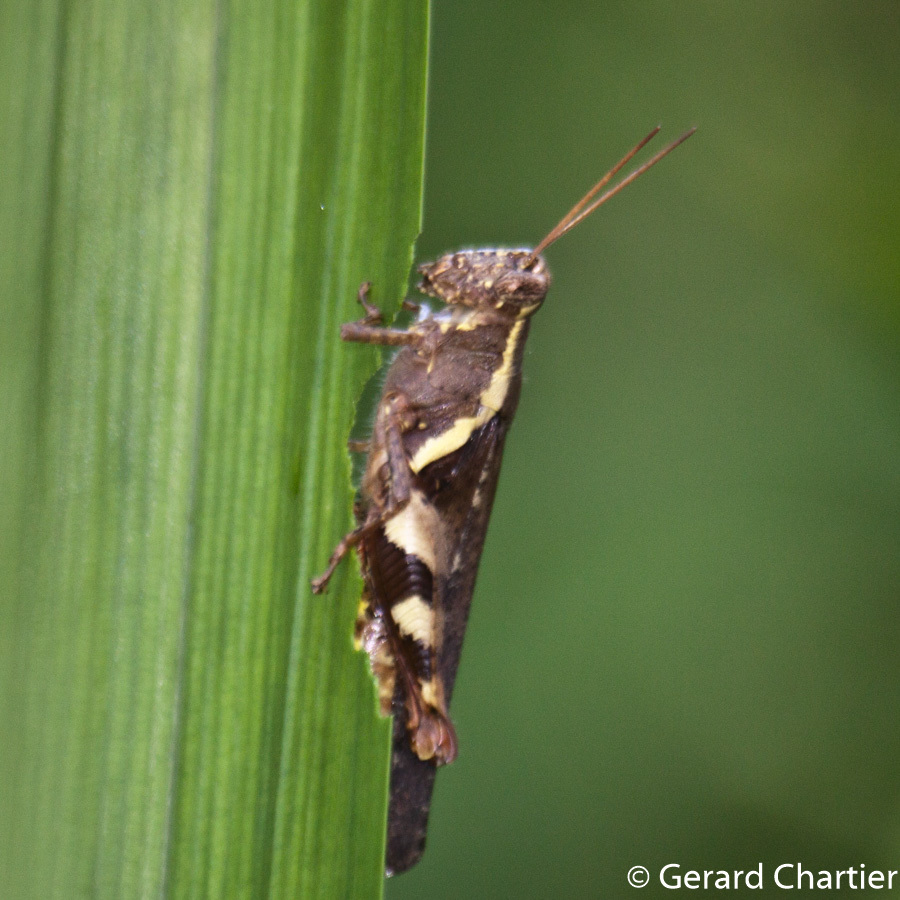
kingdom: Animalia
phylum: Arthropoda
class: Insecta
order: Orthoptera
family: Acrididae
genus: Xenocatantops
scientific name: Xenocatantops humile
